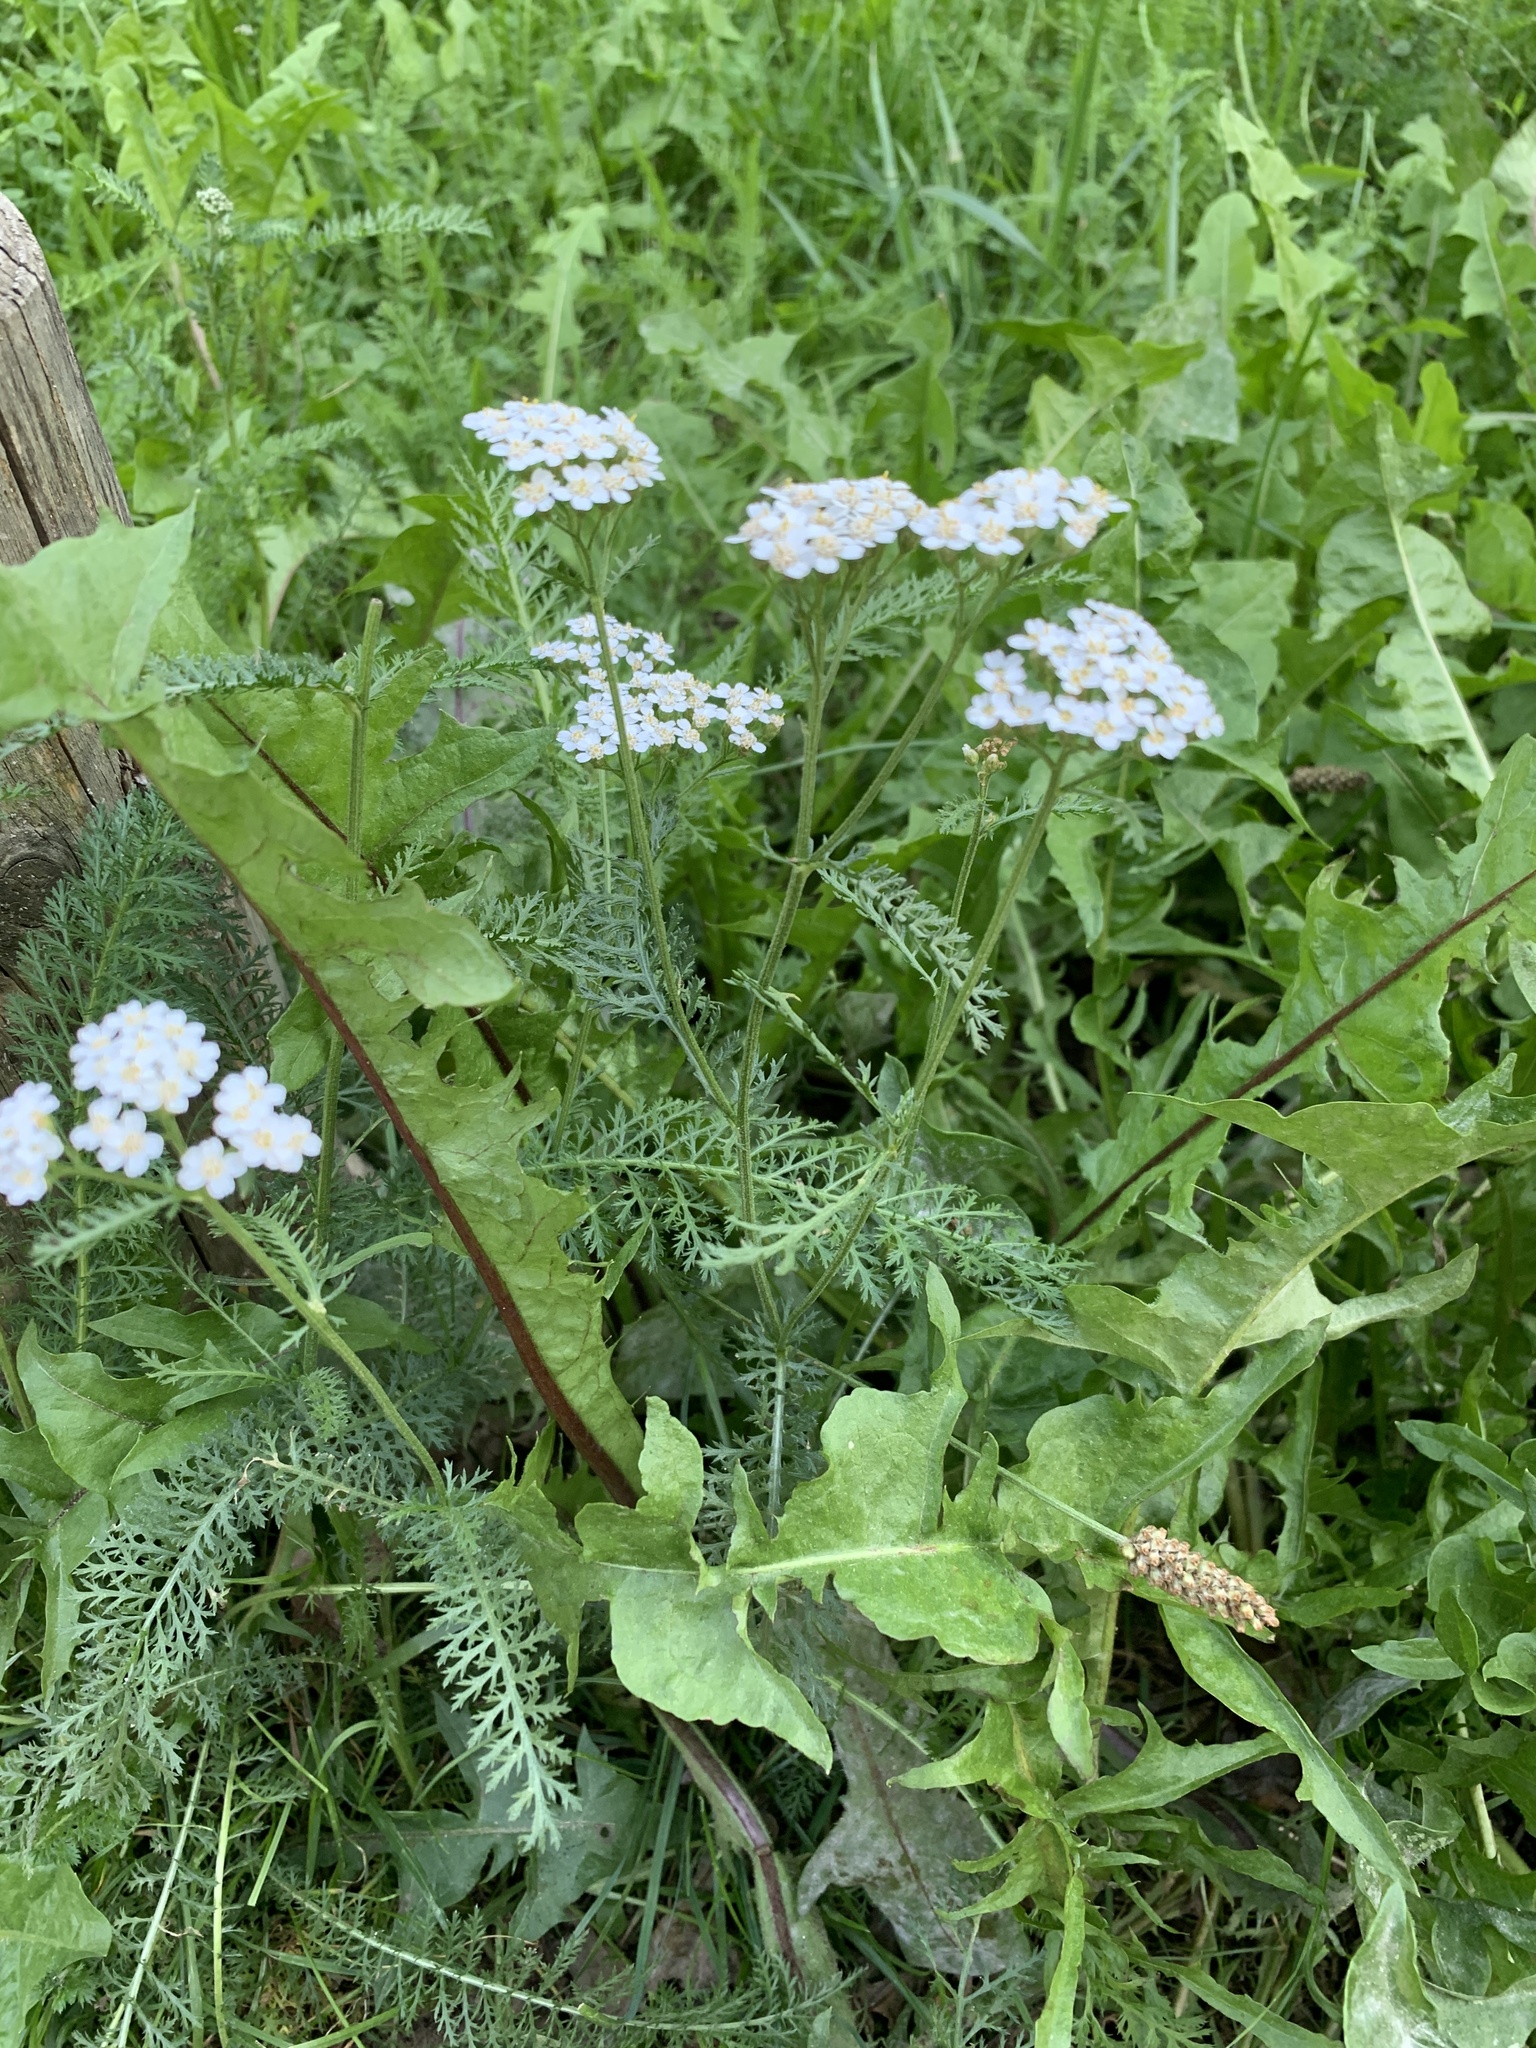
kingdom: Plantae
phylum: Tracheophyta
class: Magnoliopsida
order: Asterales
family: Asteraceae
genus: Achillea
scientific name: Achillea millefolium
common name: Yarrow
